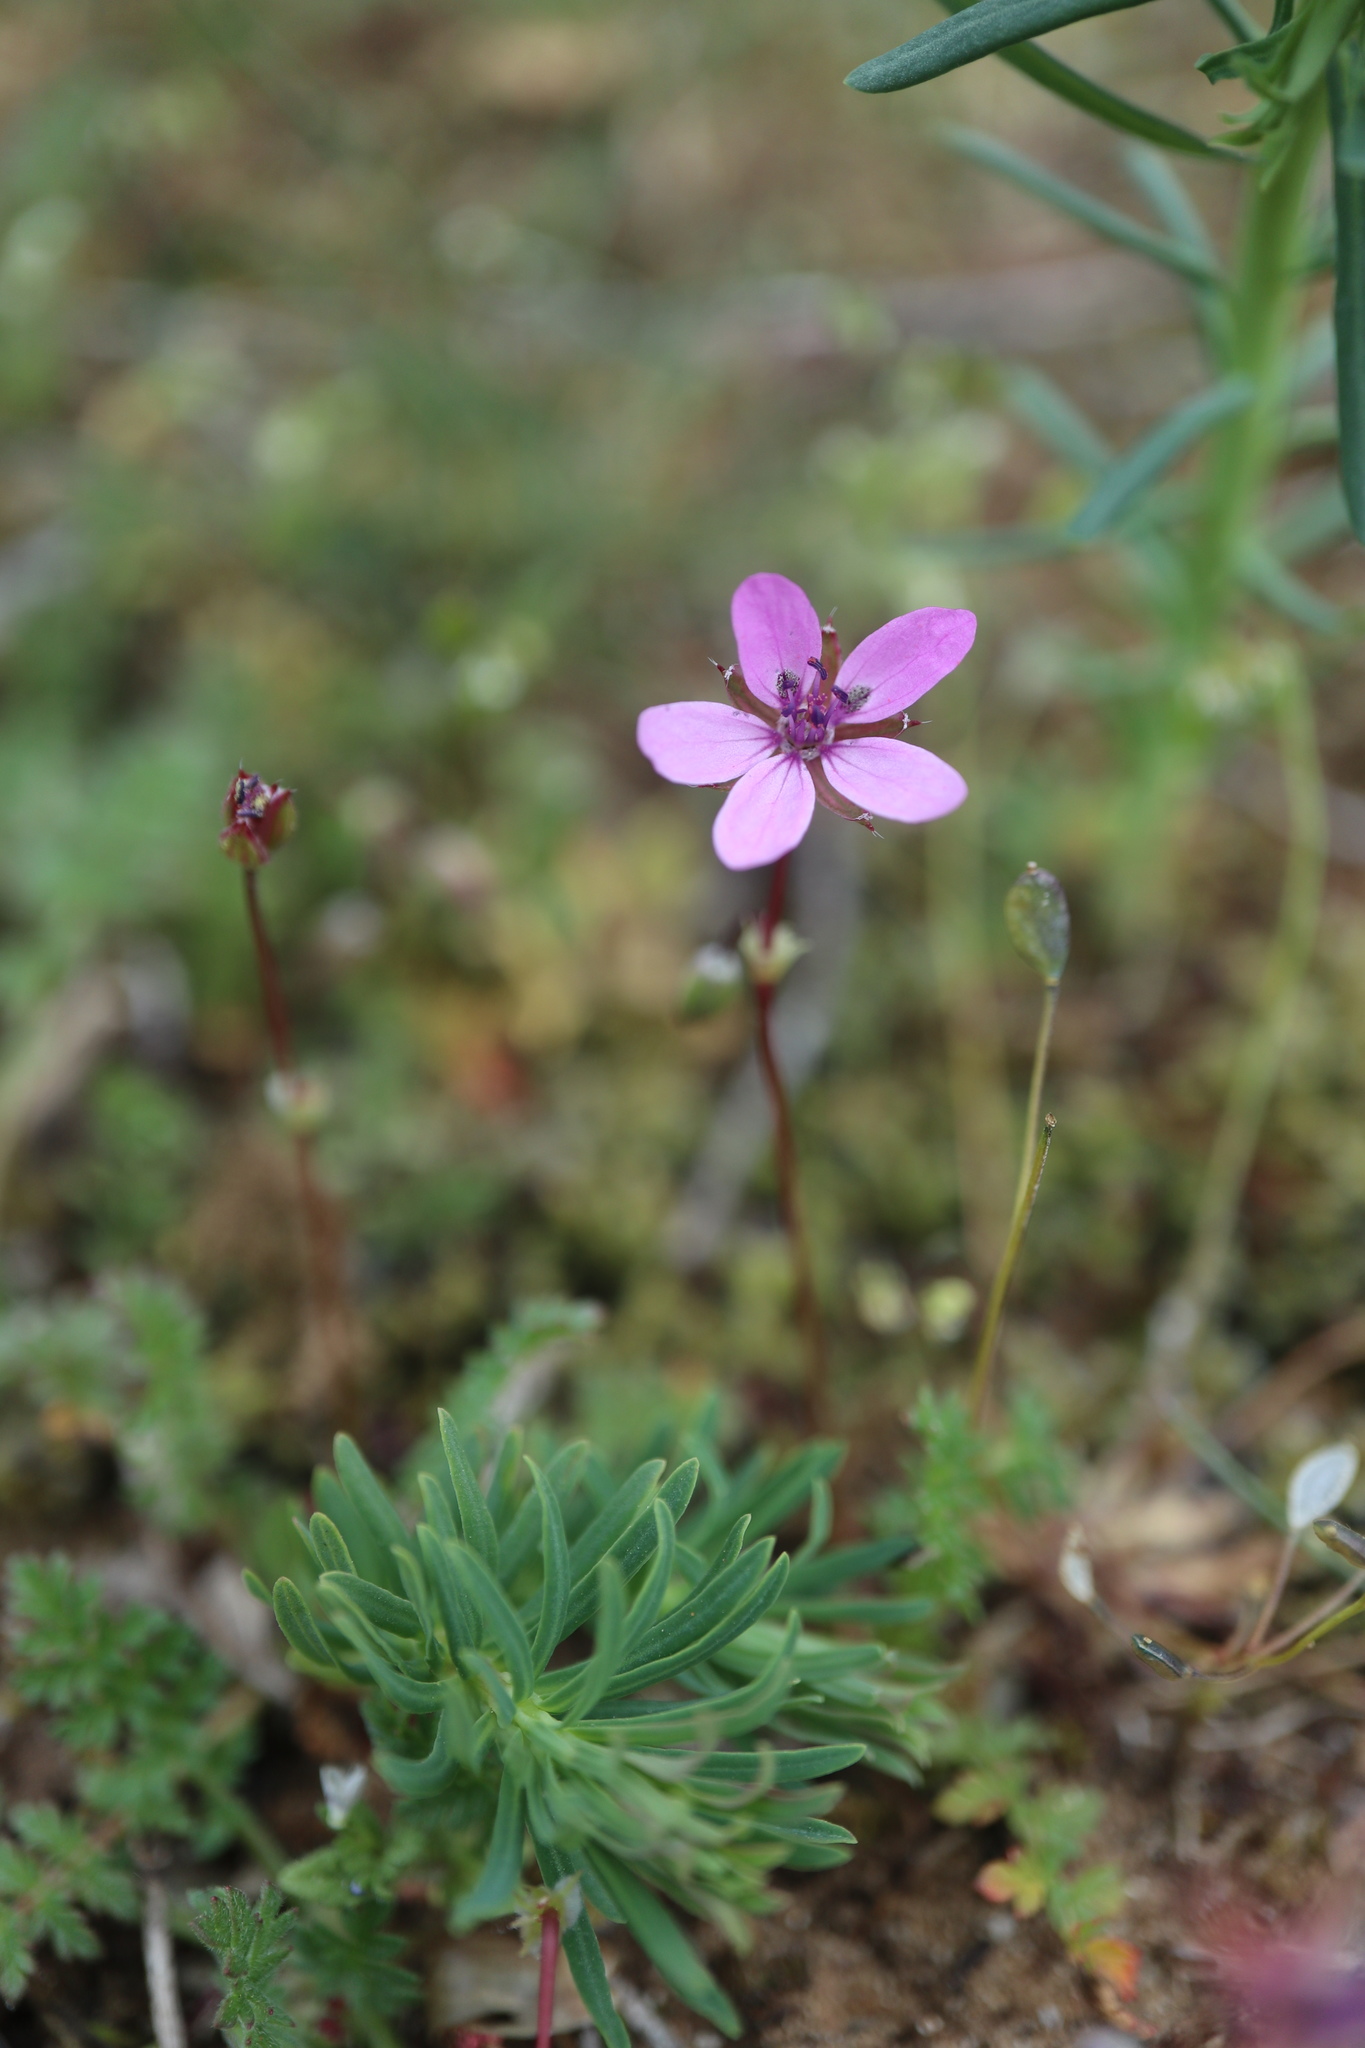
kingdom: Plantae
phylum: Tracheophyta
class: Magnoliopsida
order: Geraniales
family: Geraniaceae
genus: Erodium
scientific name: Erodium cicutarium
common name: Common stork's-bill
